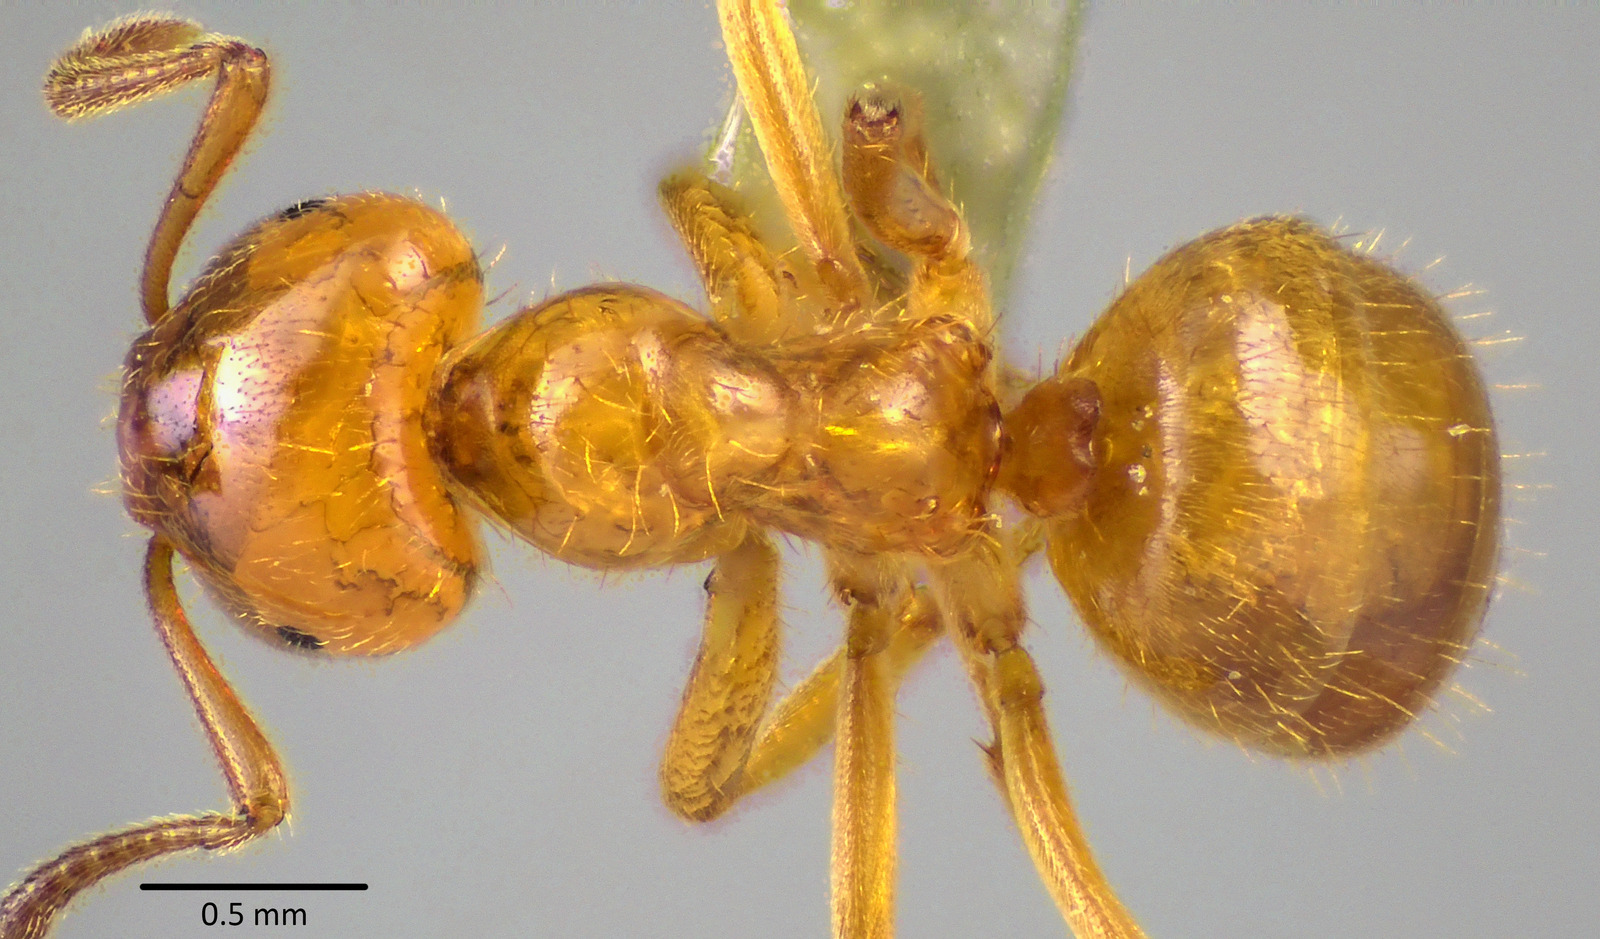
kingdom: Animalia
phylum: Arthropoda
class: Insecta
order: Hymenoptera
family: Formicidae
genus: Lasius
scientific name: Lasius claviger
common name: Common citronella ant
